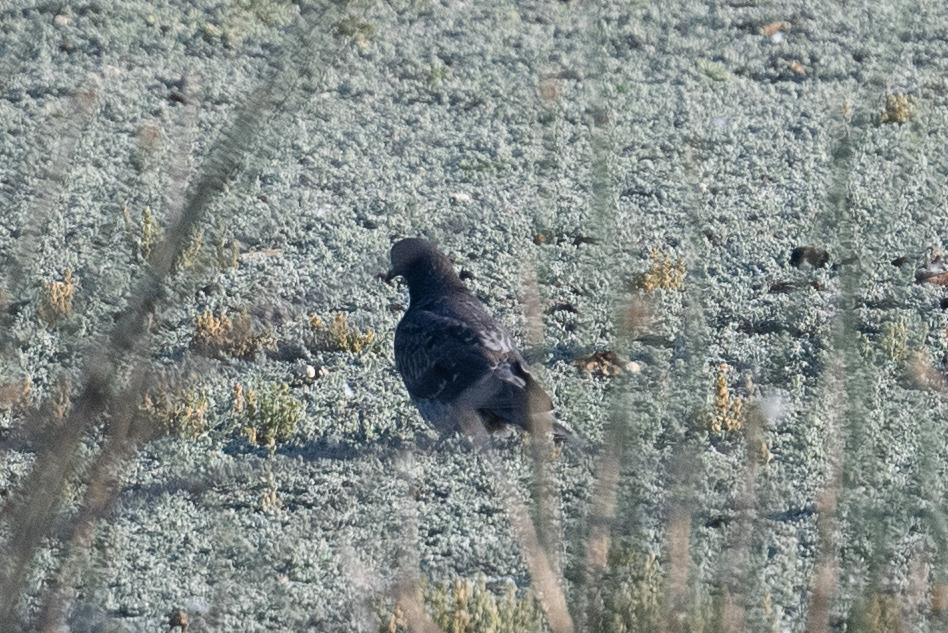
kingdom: Animalia
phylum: Chordata
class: Aves
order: Columbiformes
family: Columbidae
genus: Columba
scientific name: Columba livia
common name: Rock pigeon
